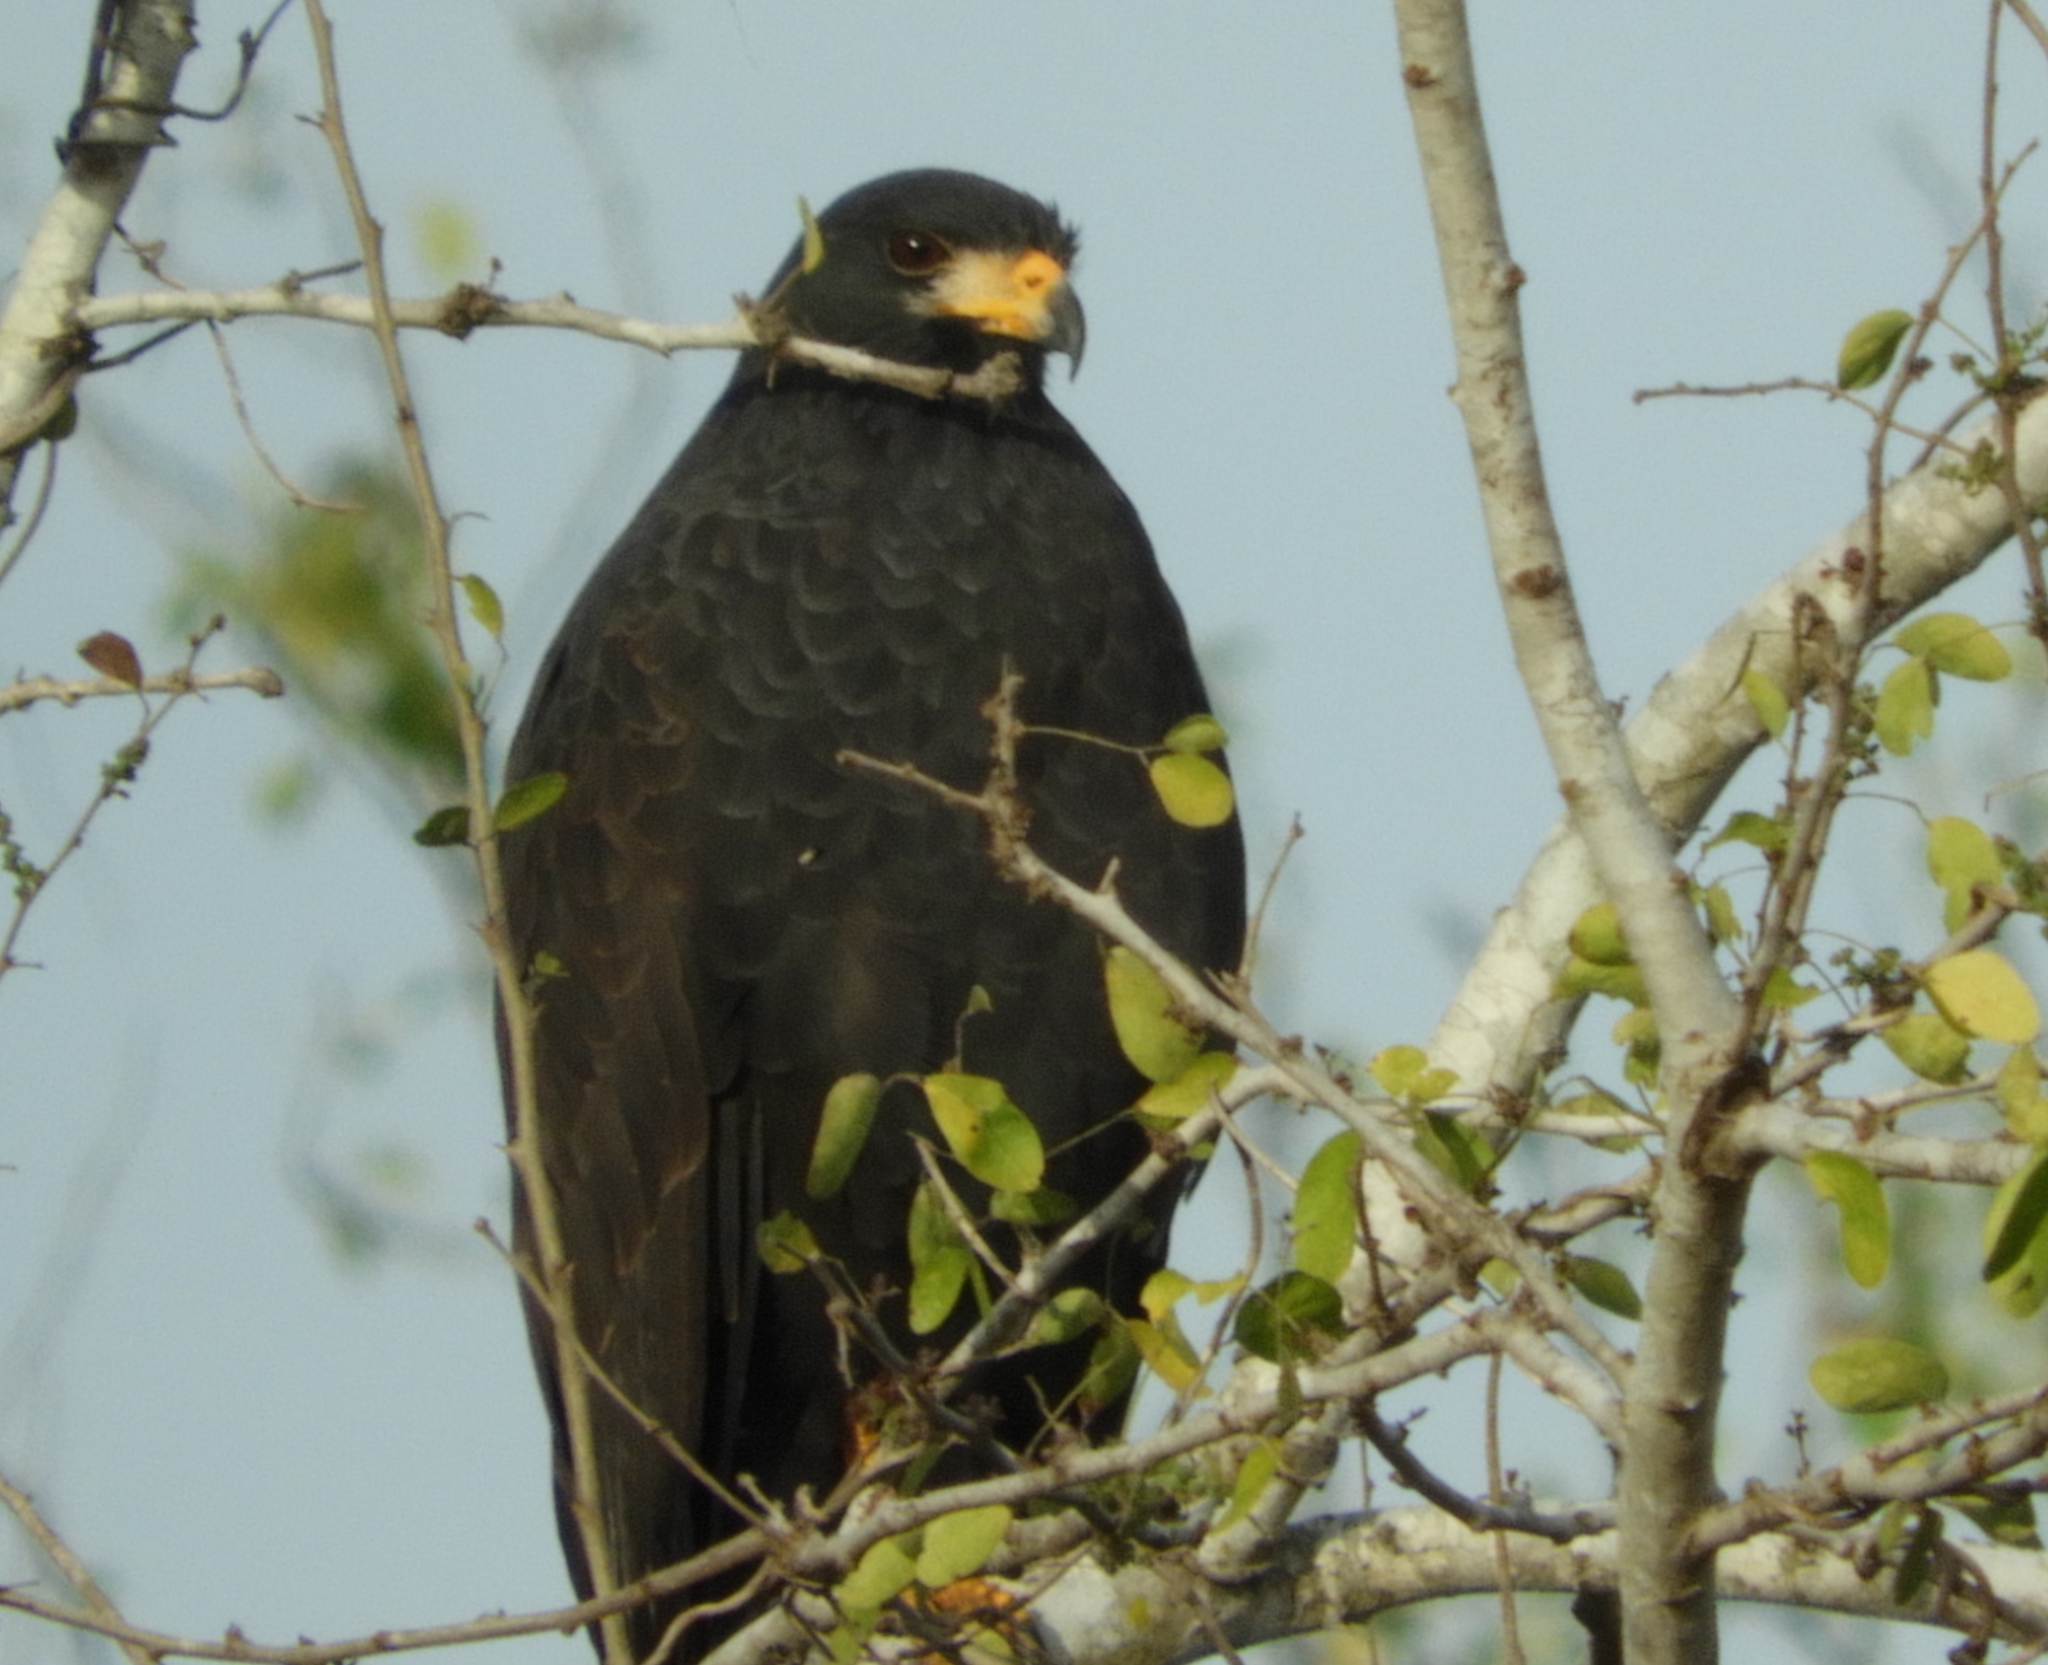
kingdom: Animalia
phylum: Chordata
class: Aves
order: Accipitriformes
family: Accipitridae
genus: Buteogallus
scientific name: Buteogallus anthracinus
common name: Common black hawk
